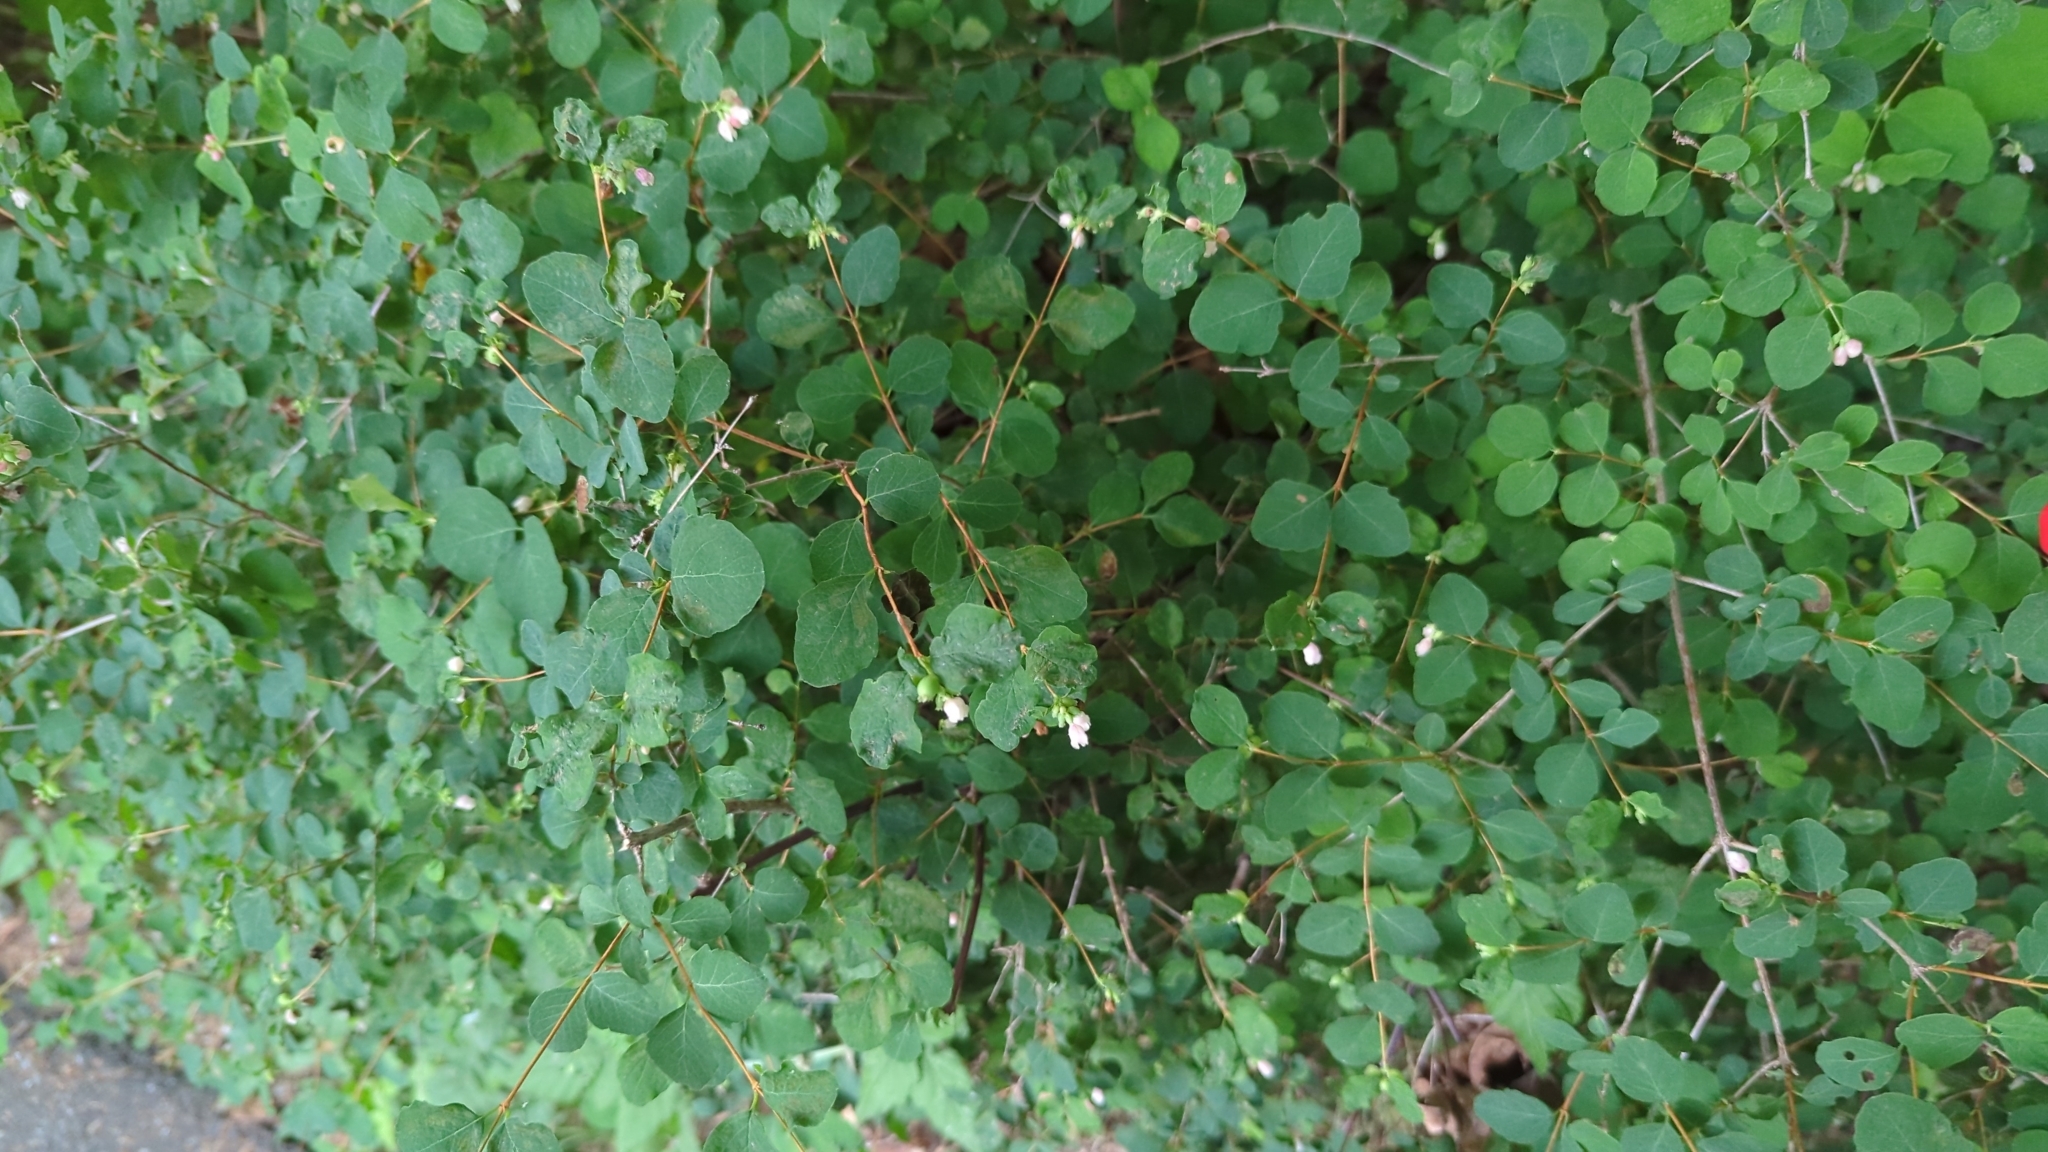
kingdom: Plantae
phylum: Tracheophyta
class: Magnoliopsida
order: Dipsacales
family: Caprifoliaceae
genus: Symphoricarpos
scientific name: Symphoricarpos albus
